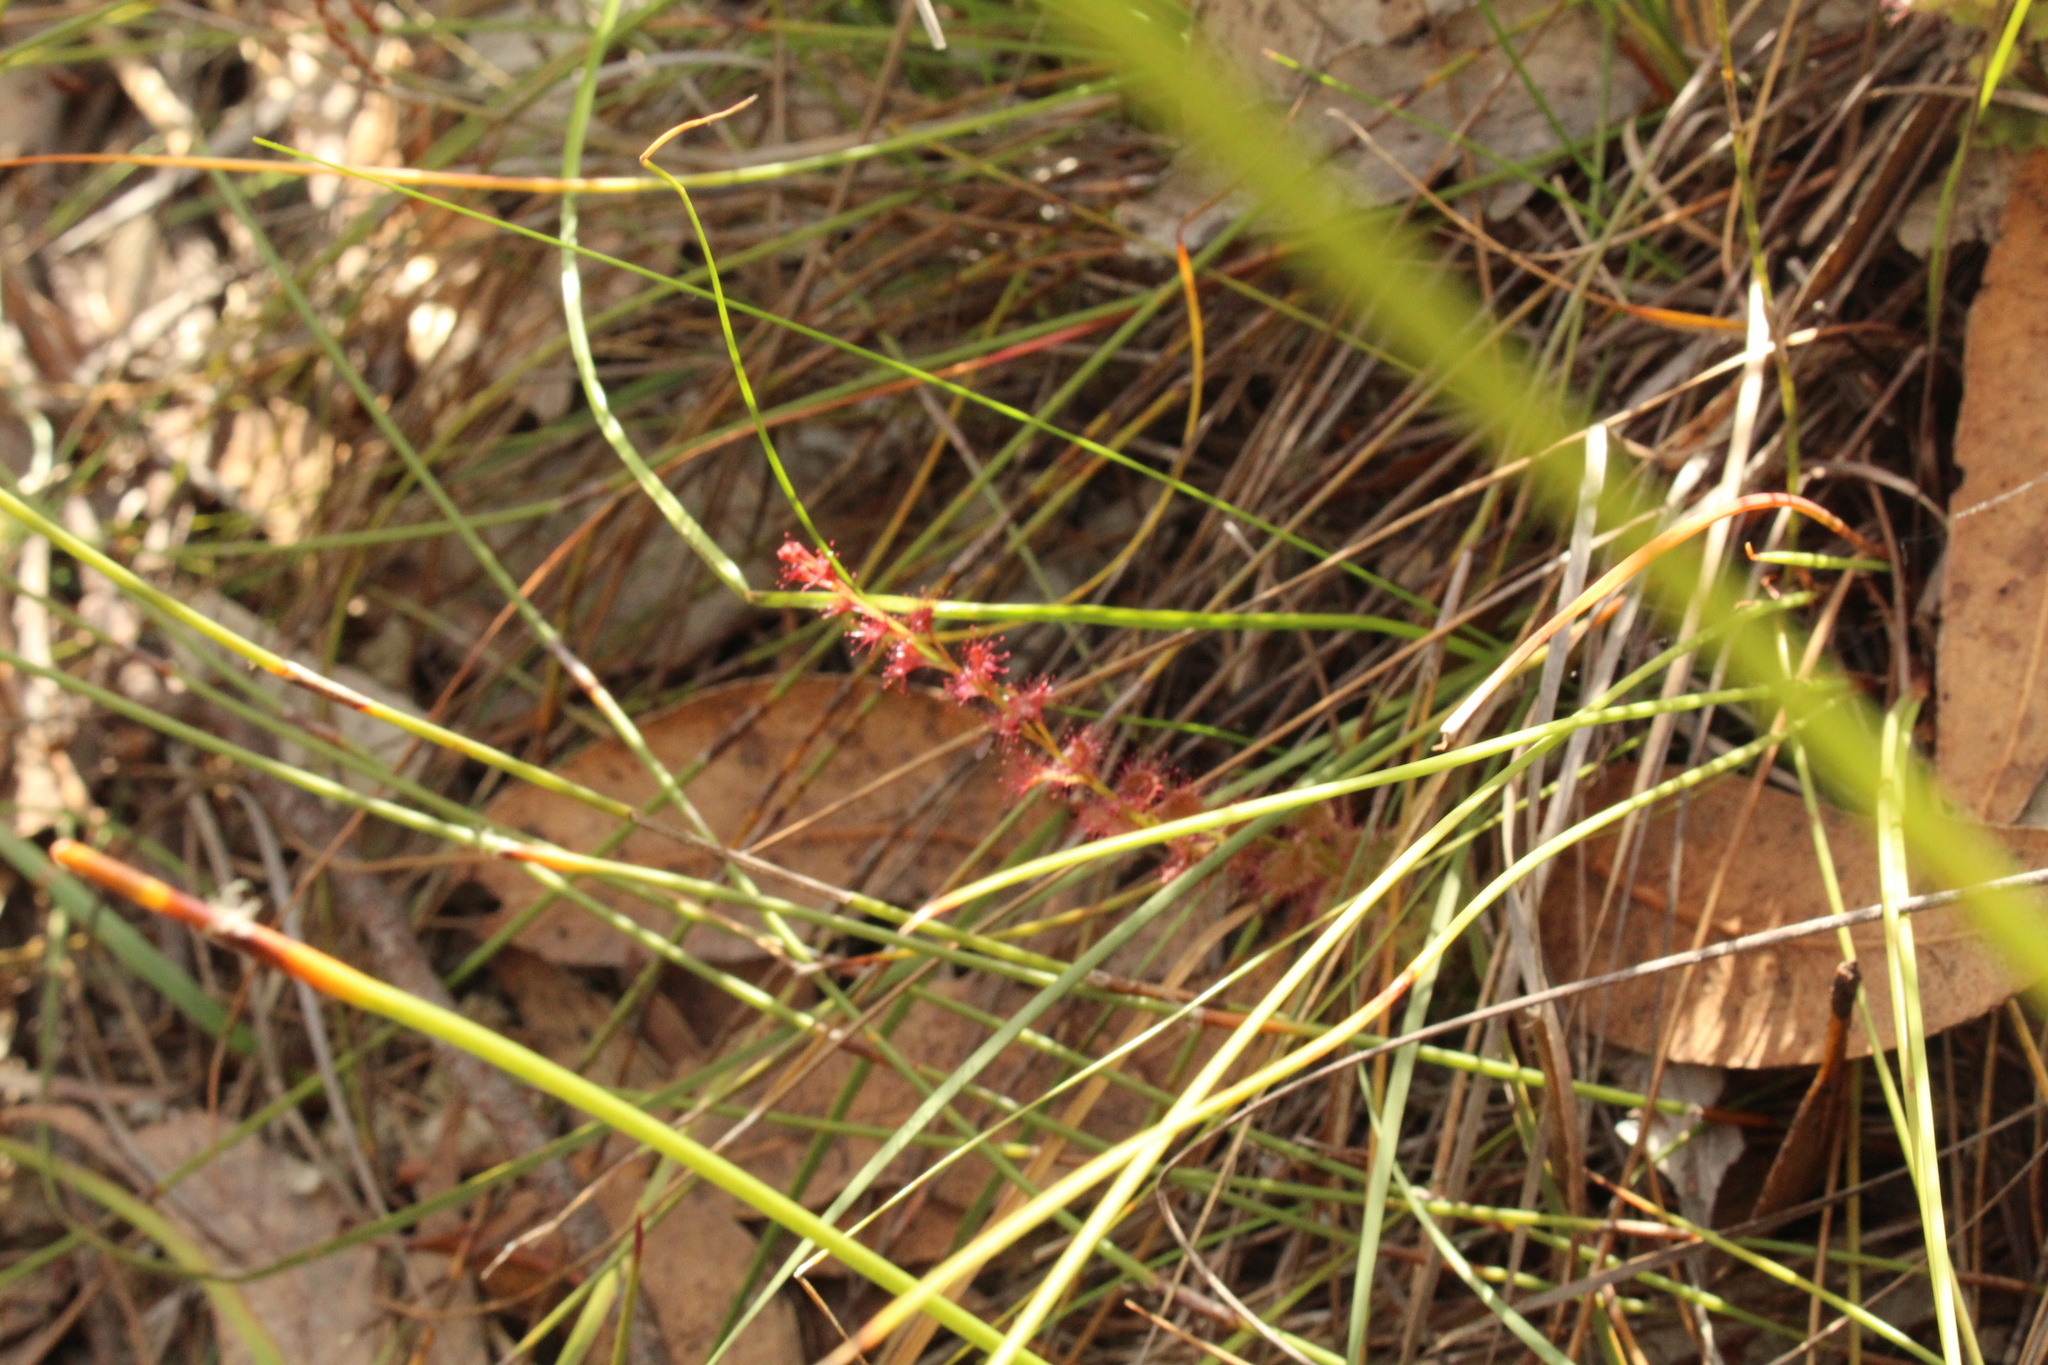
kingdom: Plantae
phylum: Tracheophyta
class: Magnoliopsida
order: Caryophyllales
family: Droseraceae
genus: Drosera
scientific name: Drosera platypoda
